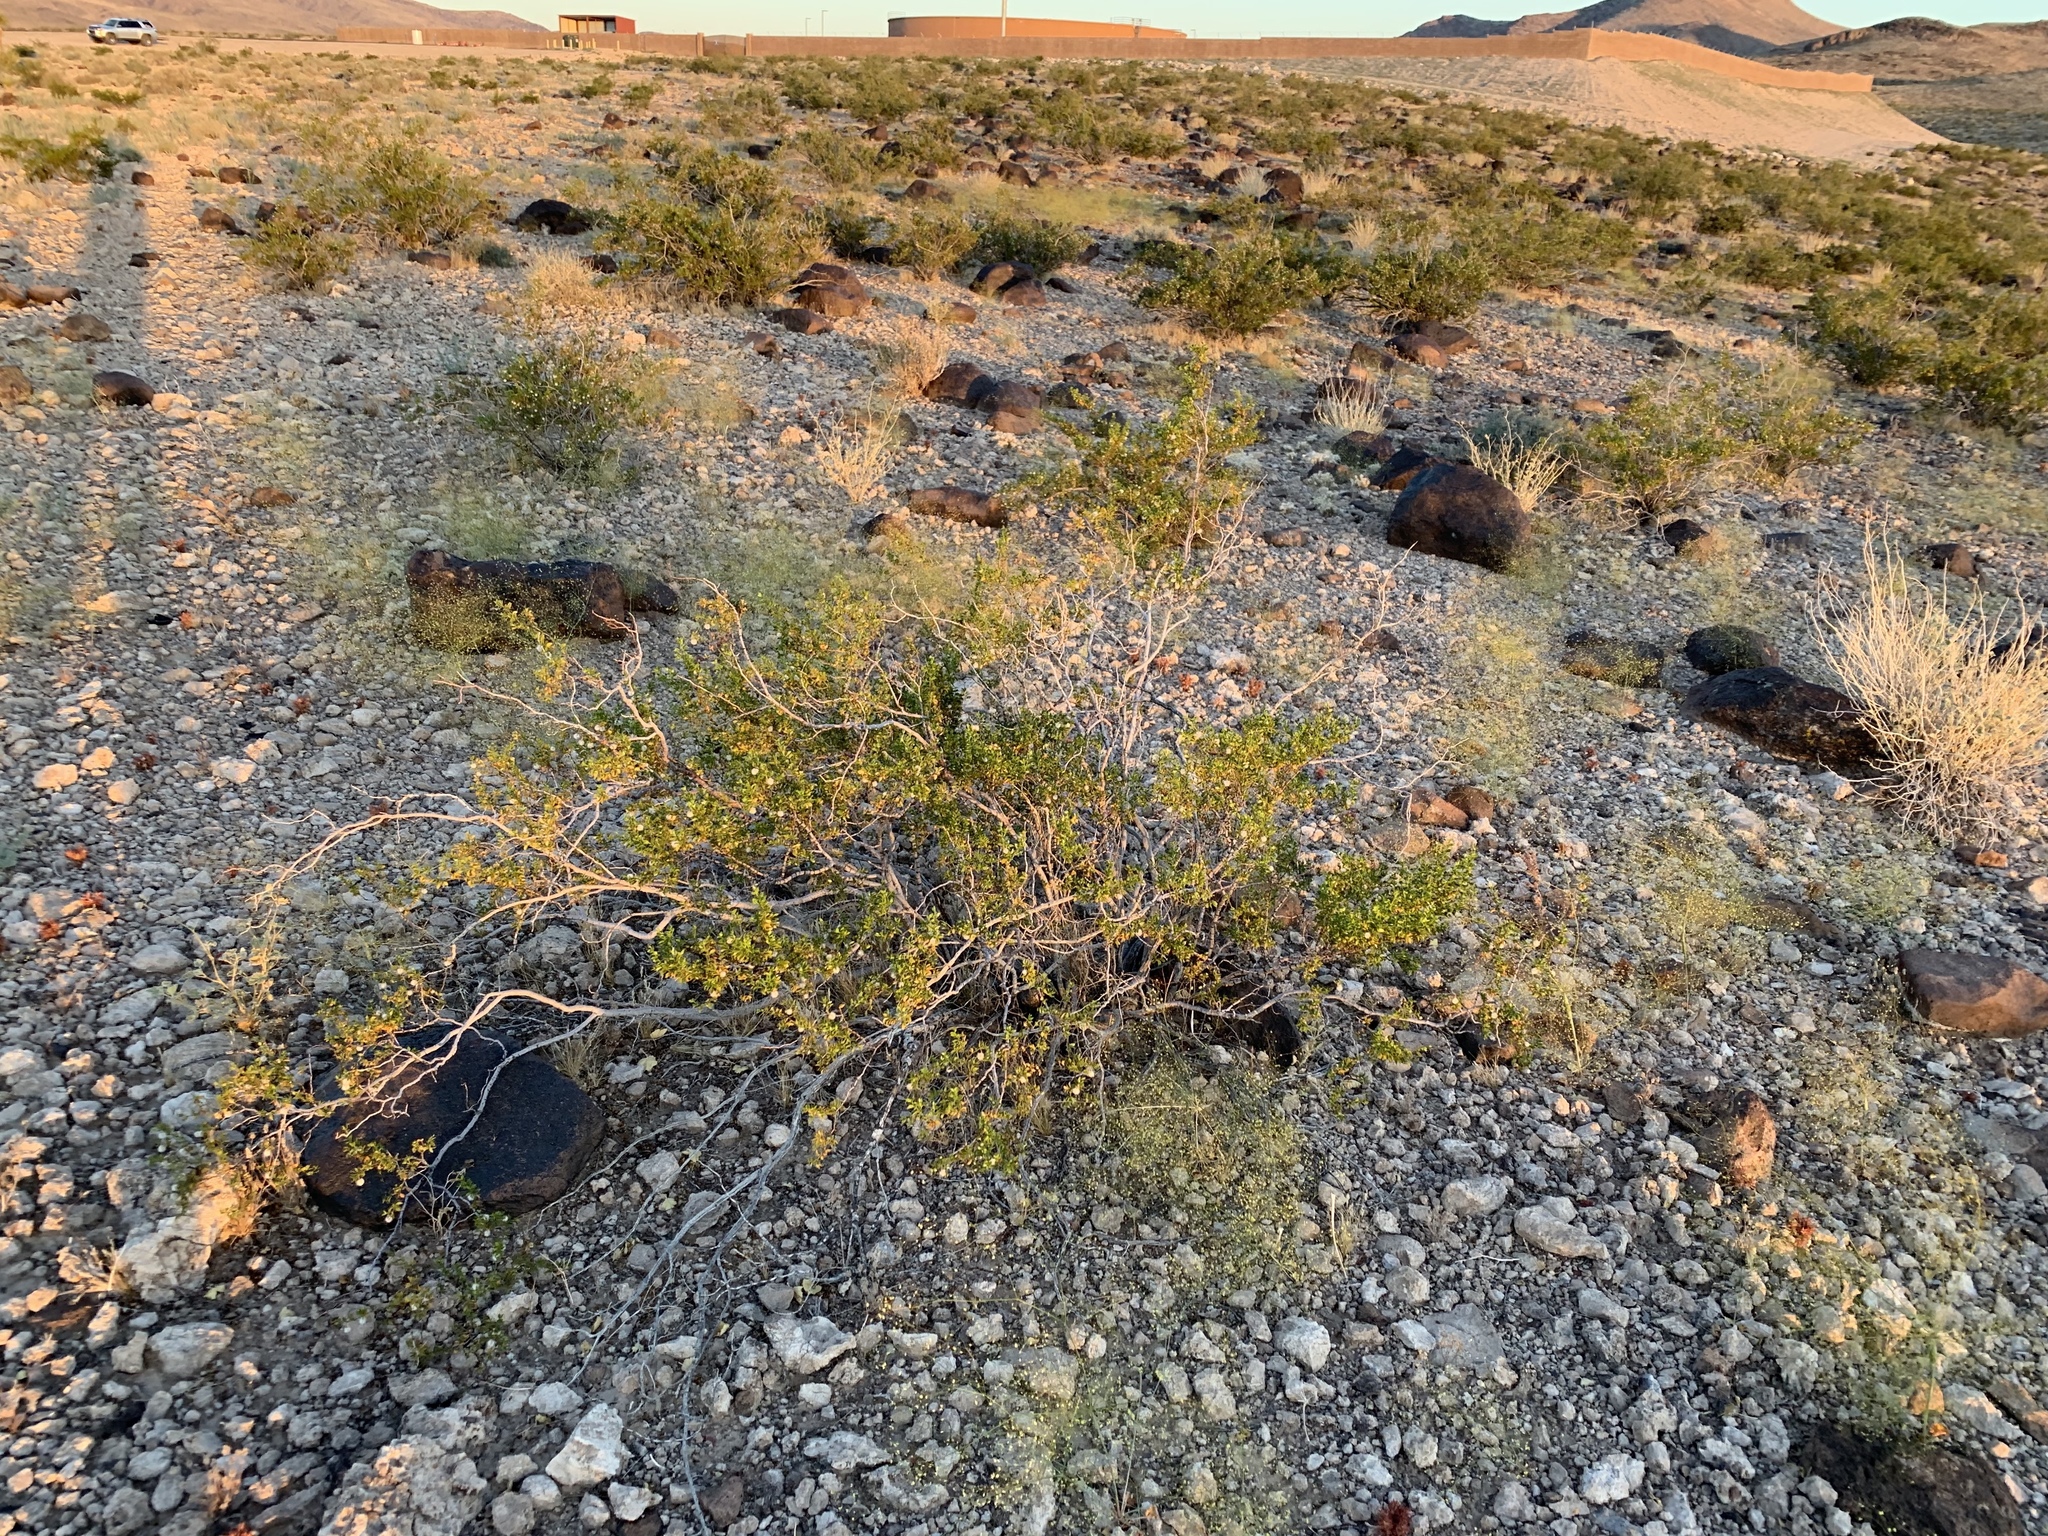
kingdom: Plantae
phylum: Tracheophyta
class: Magnoliopsida
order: Zygophyllales
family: Zygophyllaceae
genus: Larrea
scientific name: Larrea tridentata
